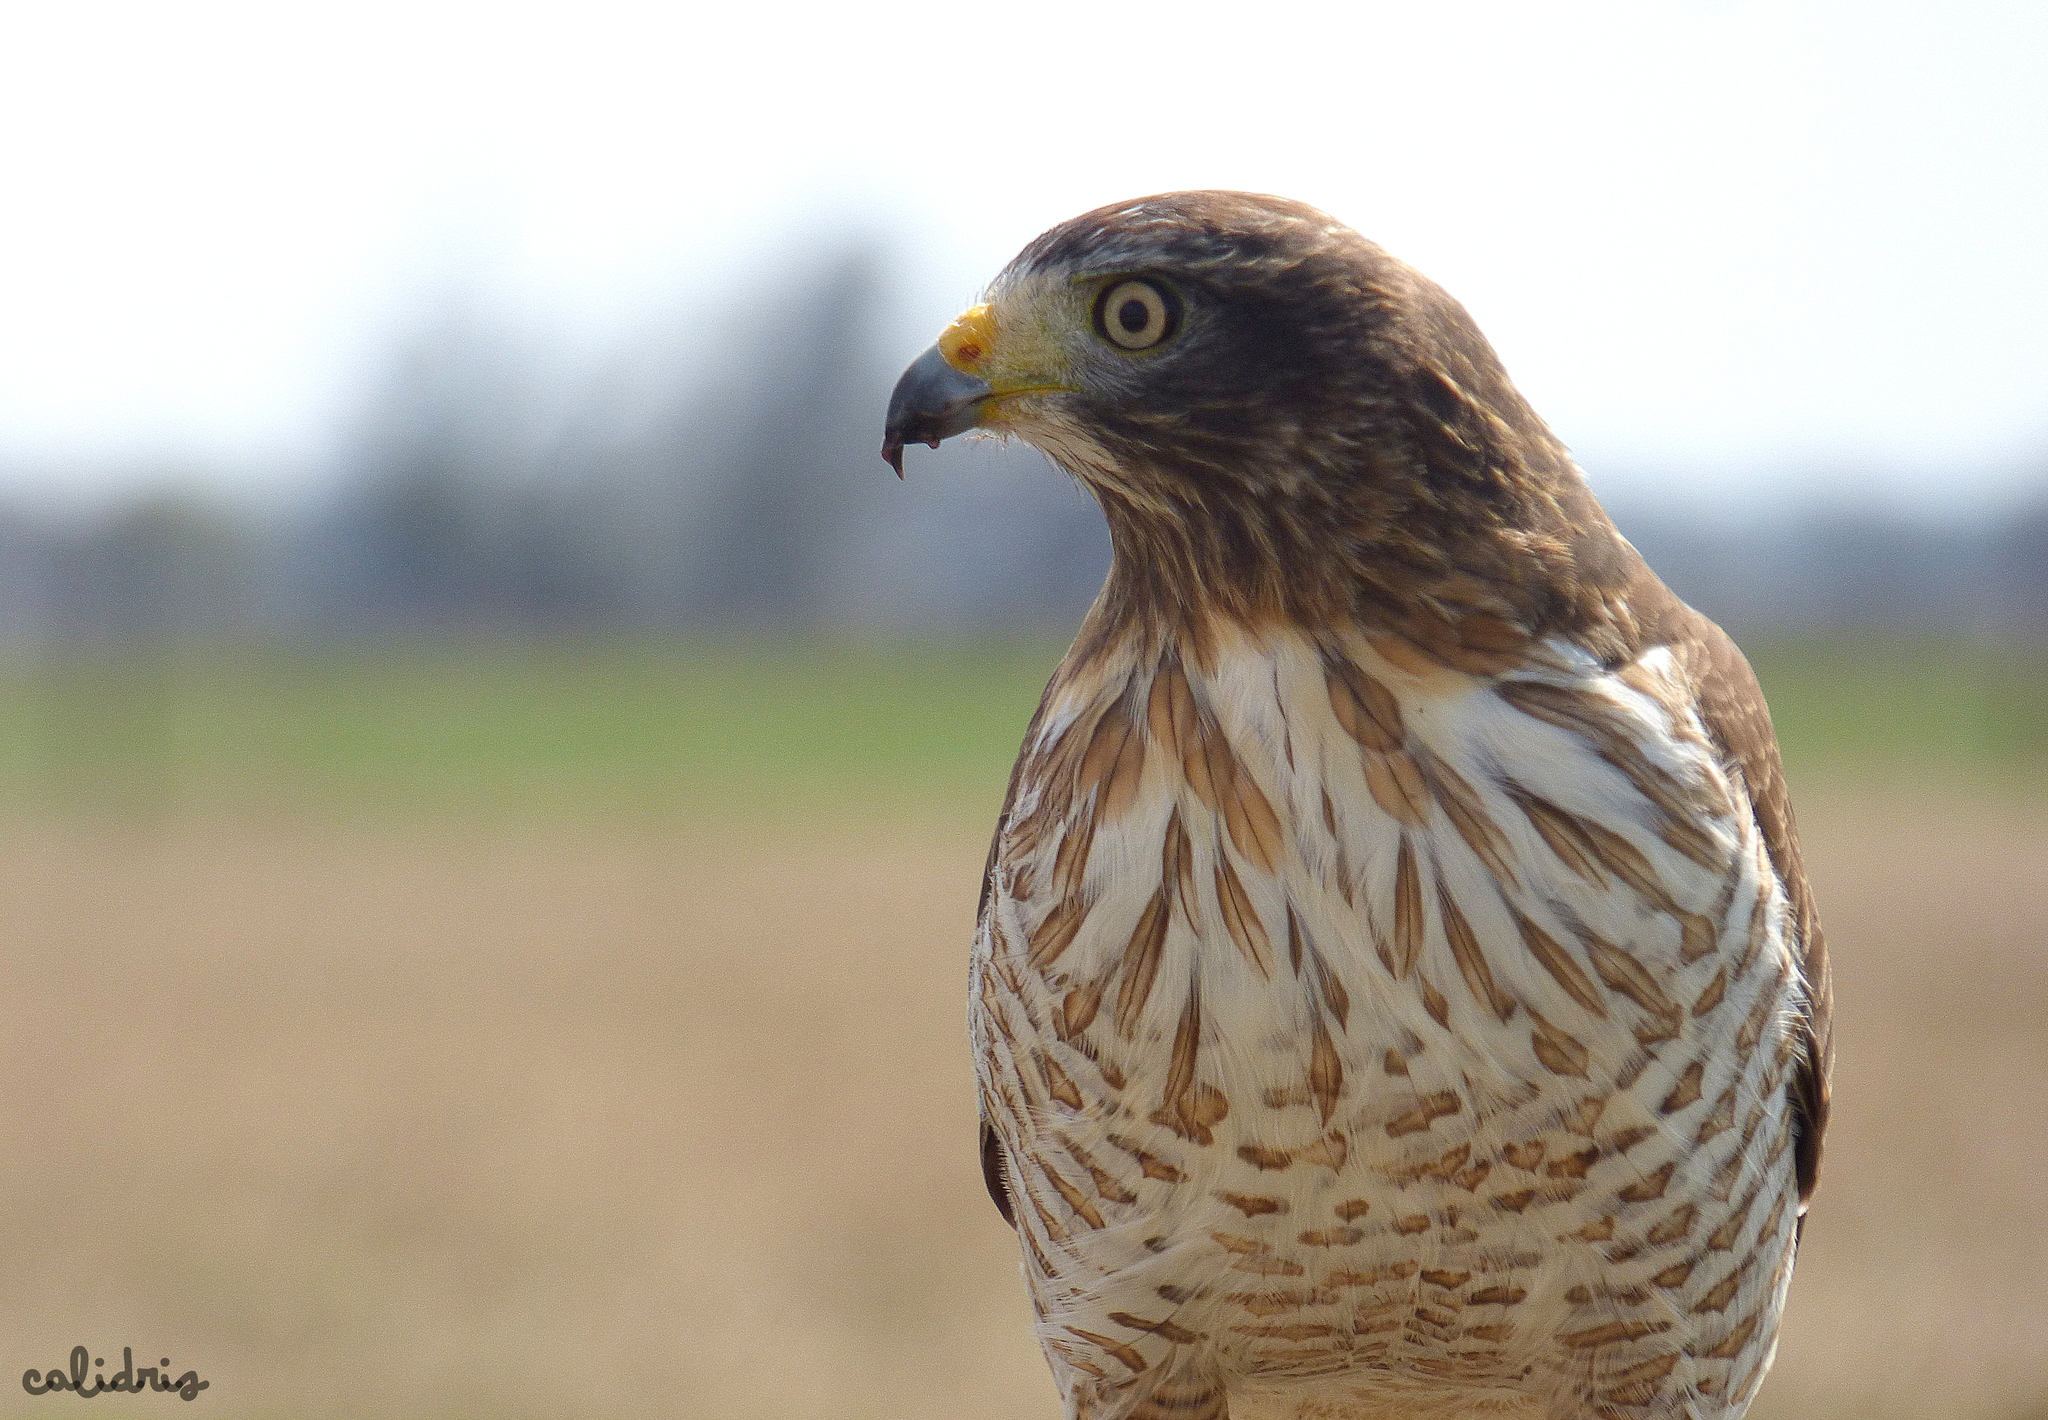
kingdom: Animalia
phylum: Chordata
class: Aves
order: Accipitriformes
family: Accipitridae
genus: Rupornis
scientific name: Rupornis magnirostris
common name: Roadside hawk
